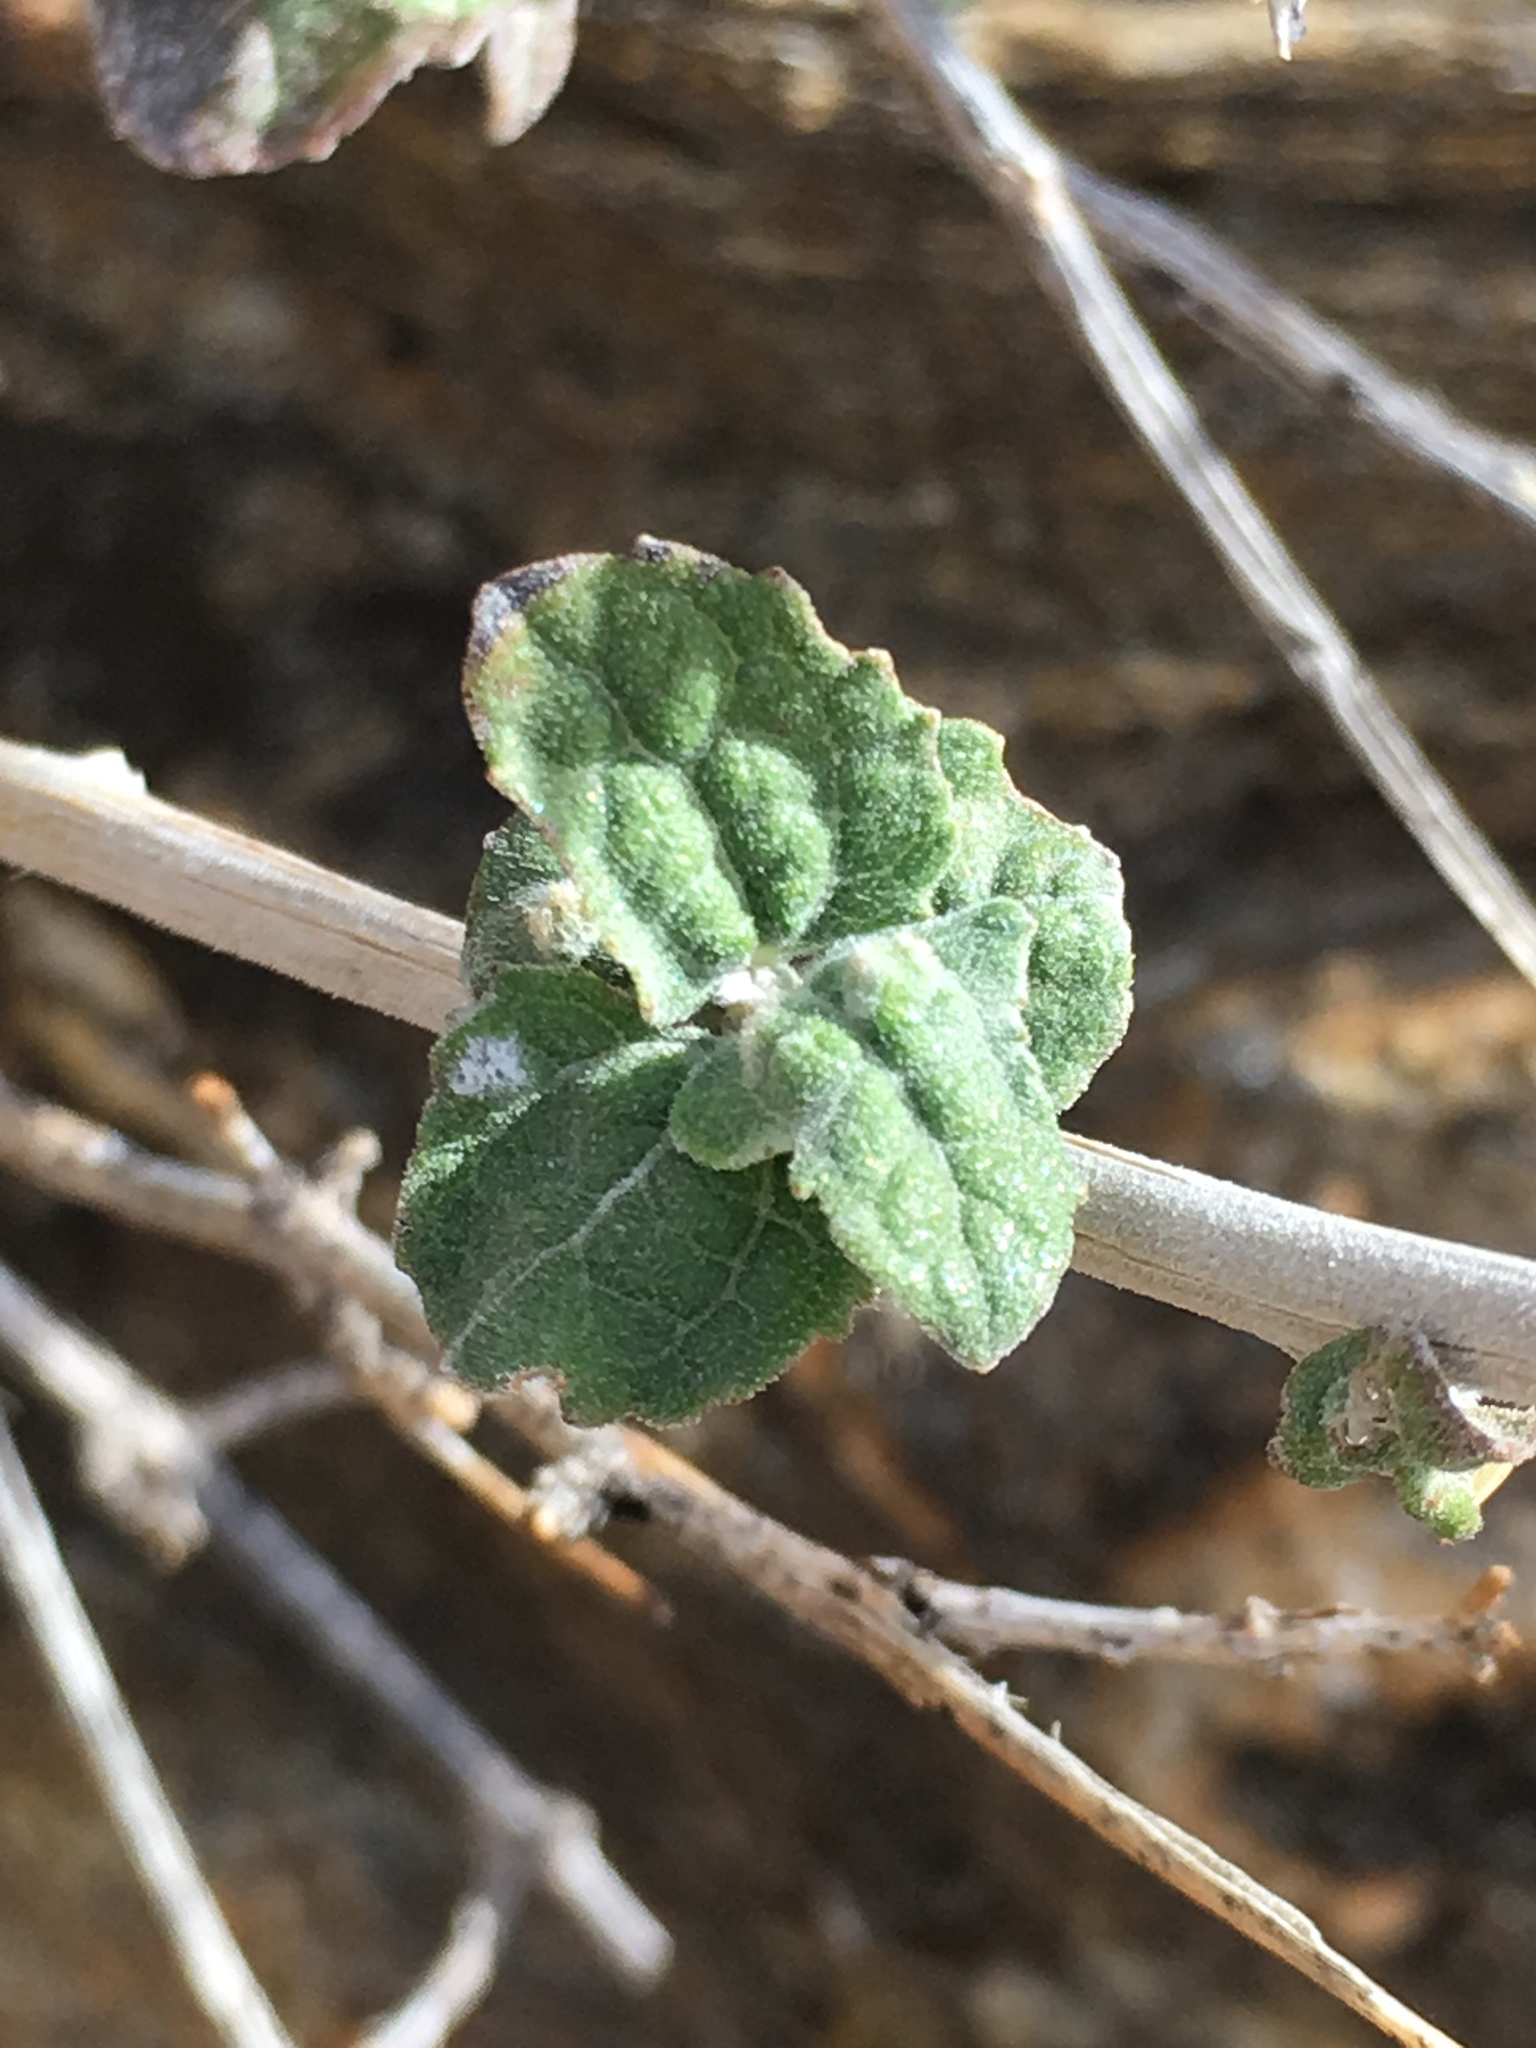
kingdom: Plantae
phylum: Tracheophyta
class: Magnoliopsida
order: Asterales
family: Asteraceae
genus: Bahiopsis
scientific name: Bahiopsis parishii
